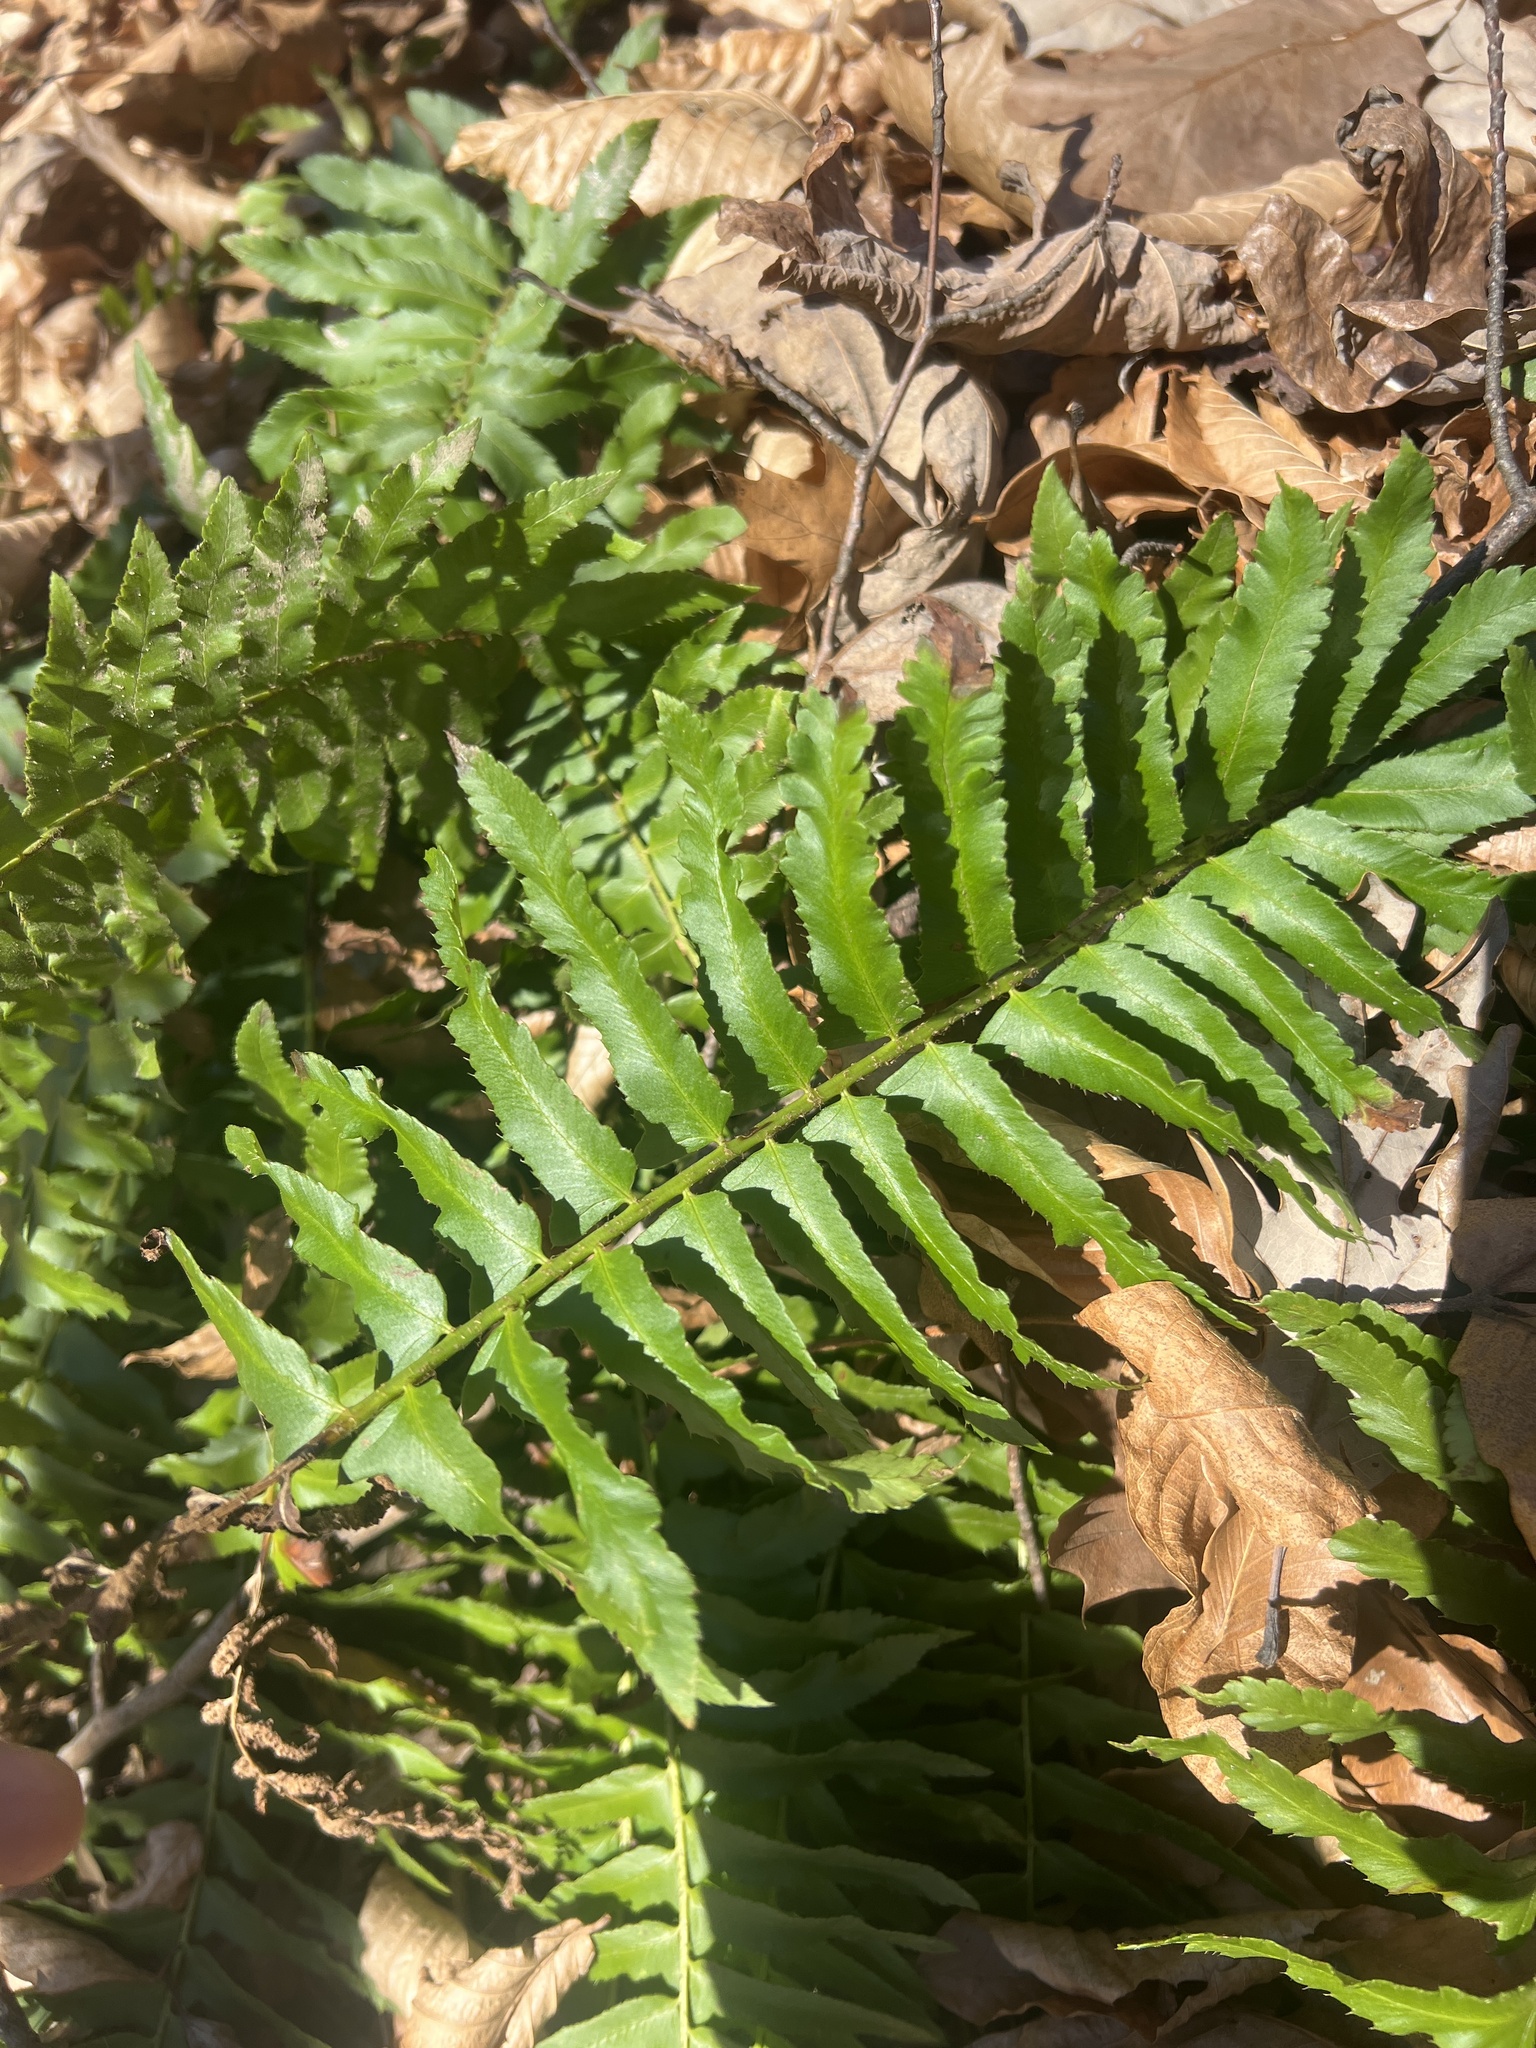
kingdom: Plantae
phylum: Tracheophyta
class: Polypodiopsida
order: Polypodiales
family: Dryopteridaceae
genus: Polystichum
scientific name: Polystichum acrostichoides
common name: Christmas fern
